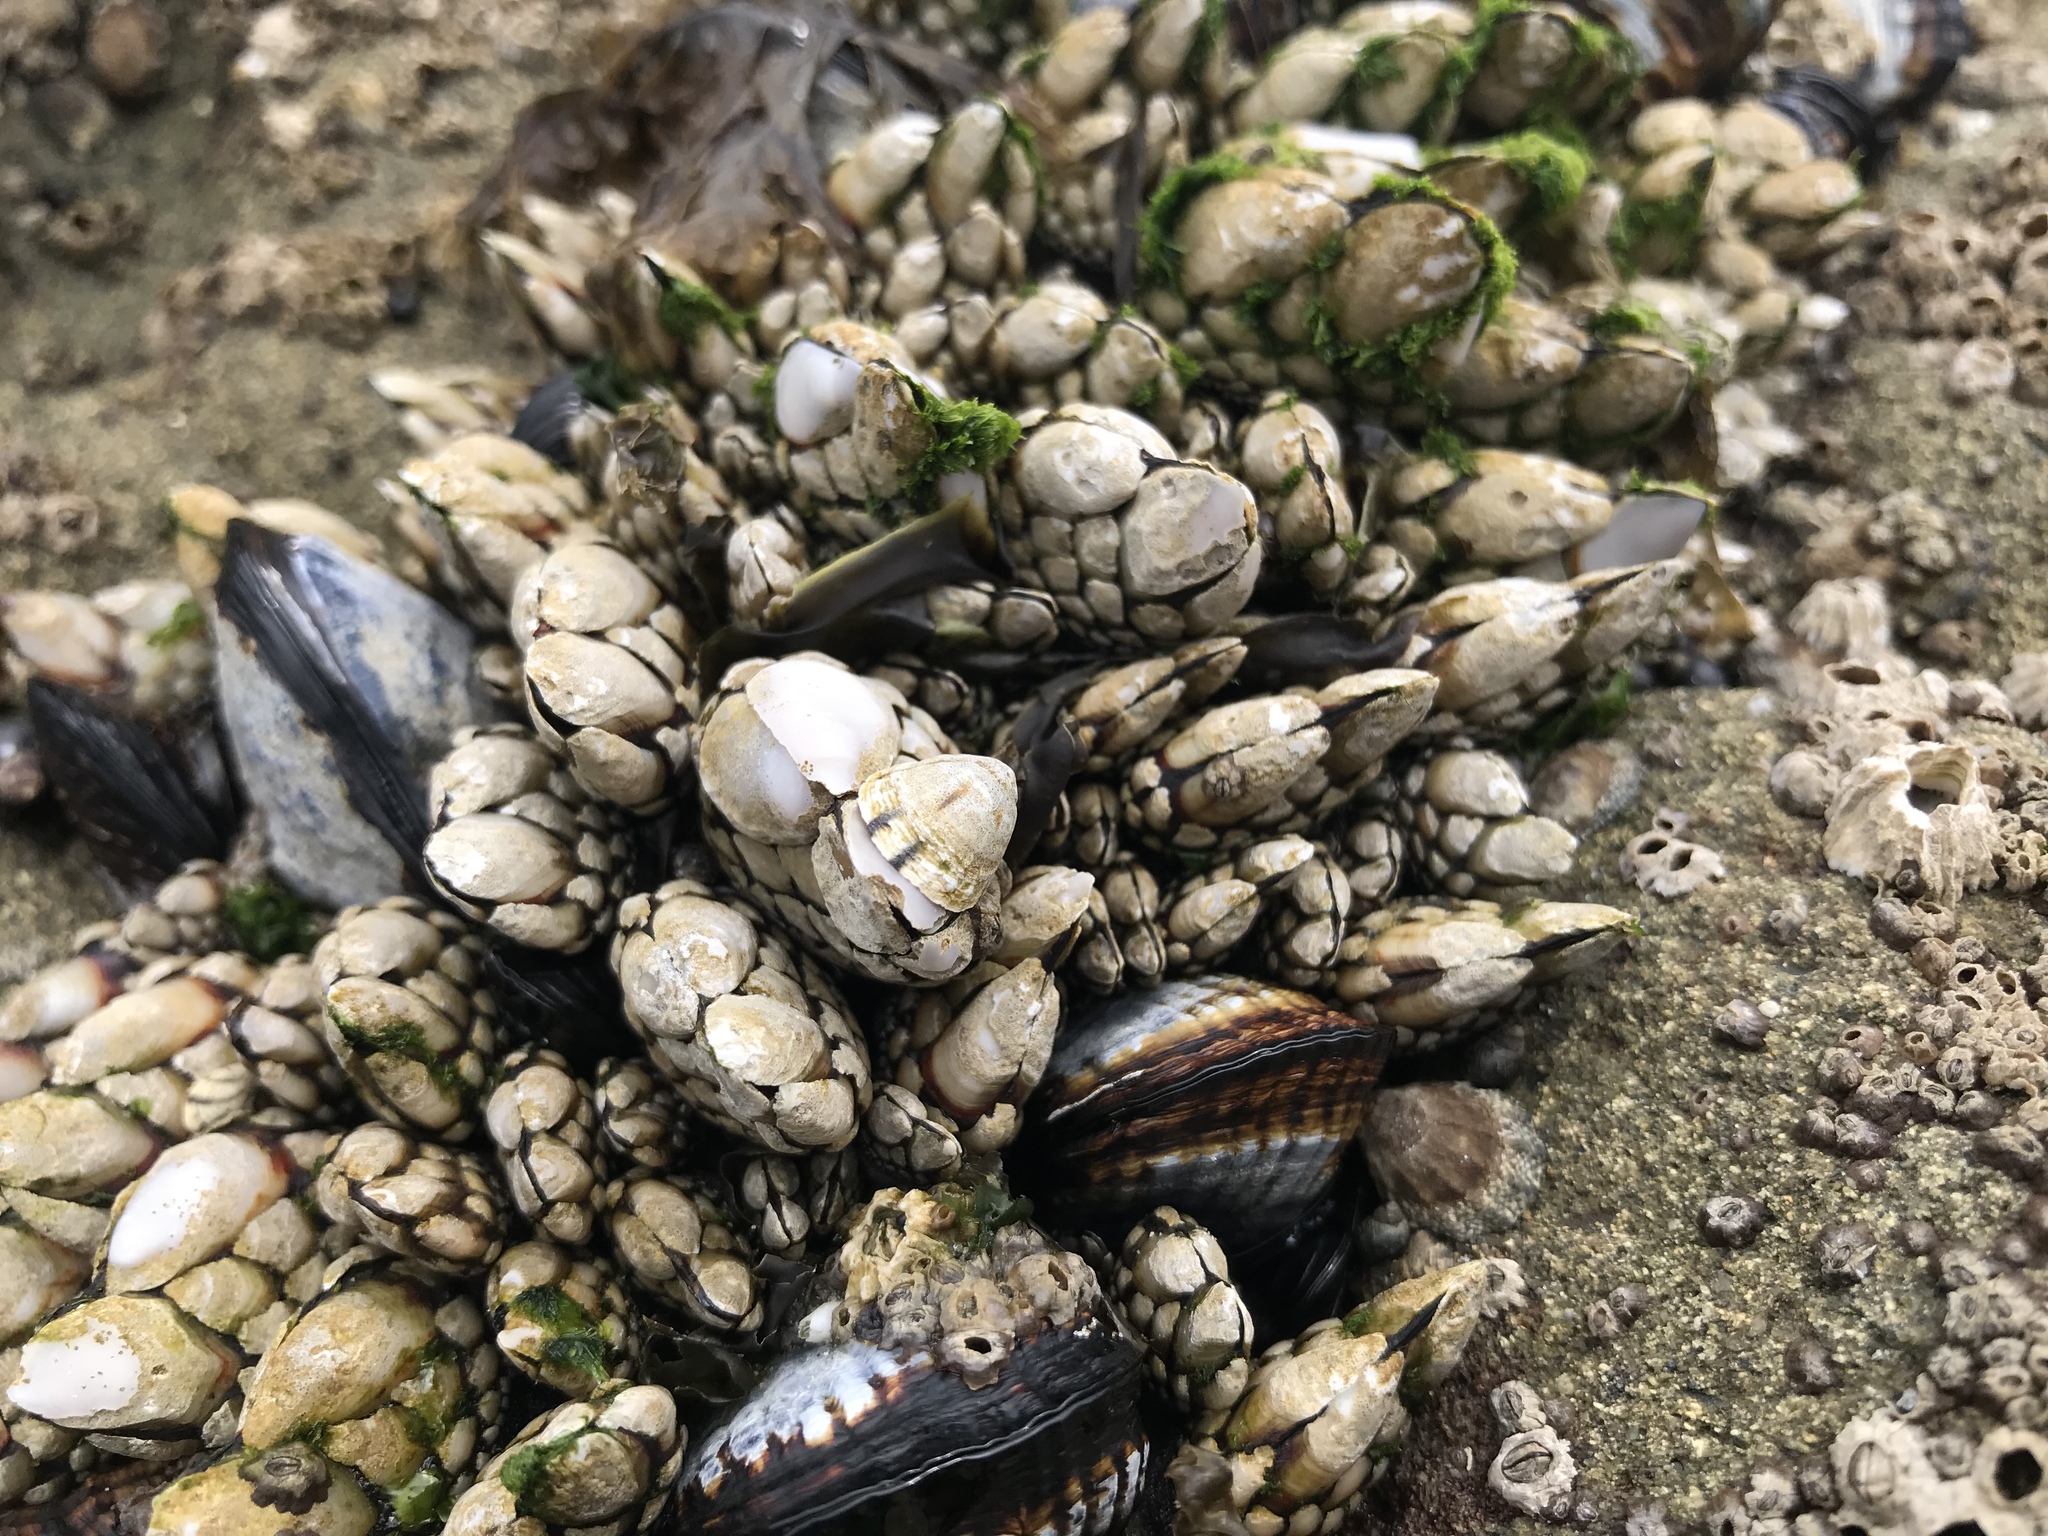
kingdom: Animalia
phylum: Arthropoda
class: Maxillopoda
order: Pedunculata
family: Pollicipedidae
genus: Pollicipes
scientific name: Pollicipes polymerus
